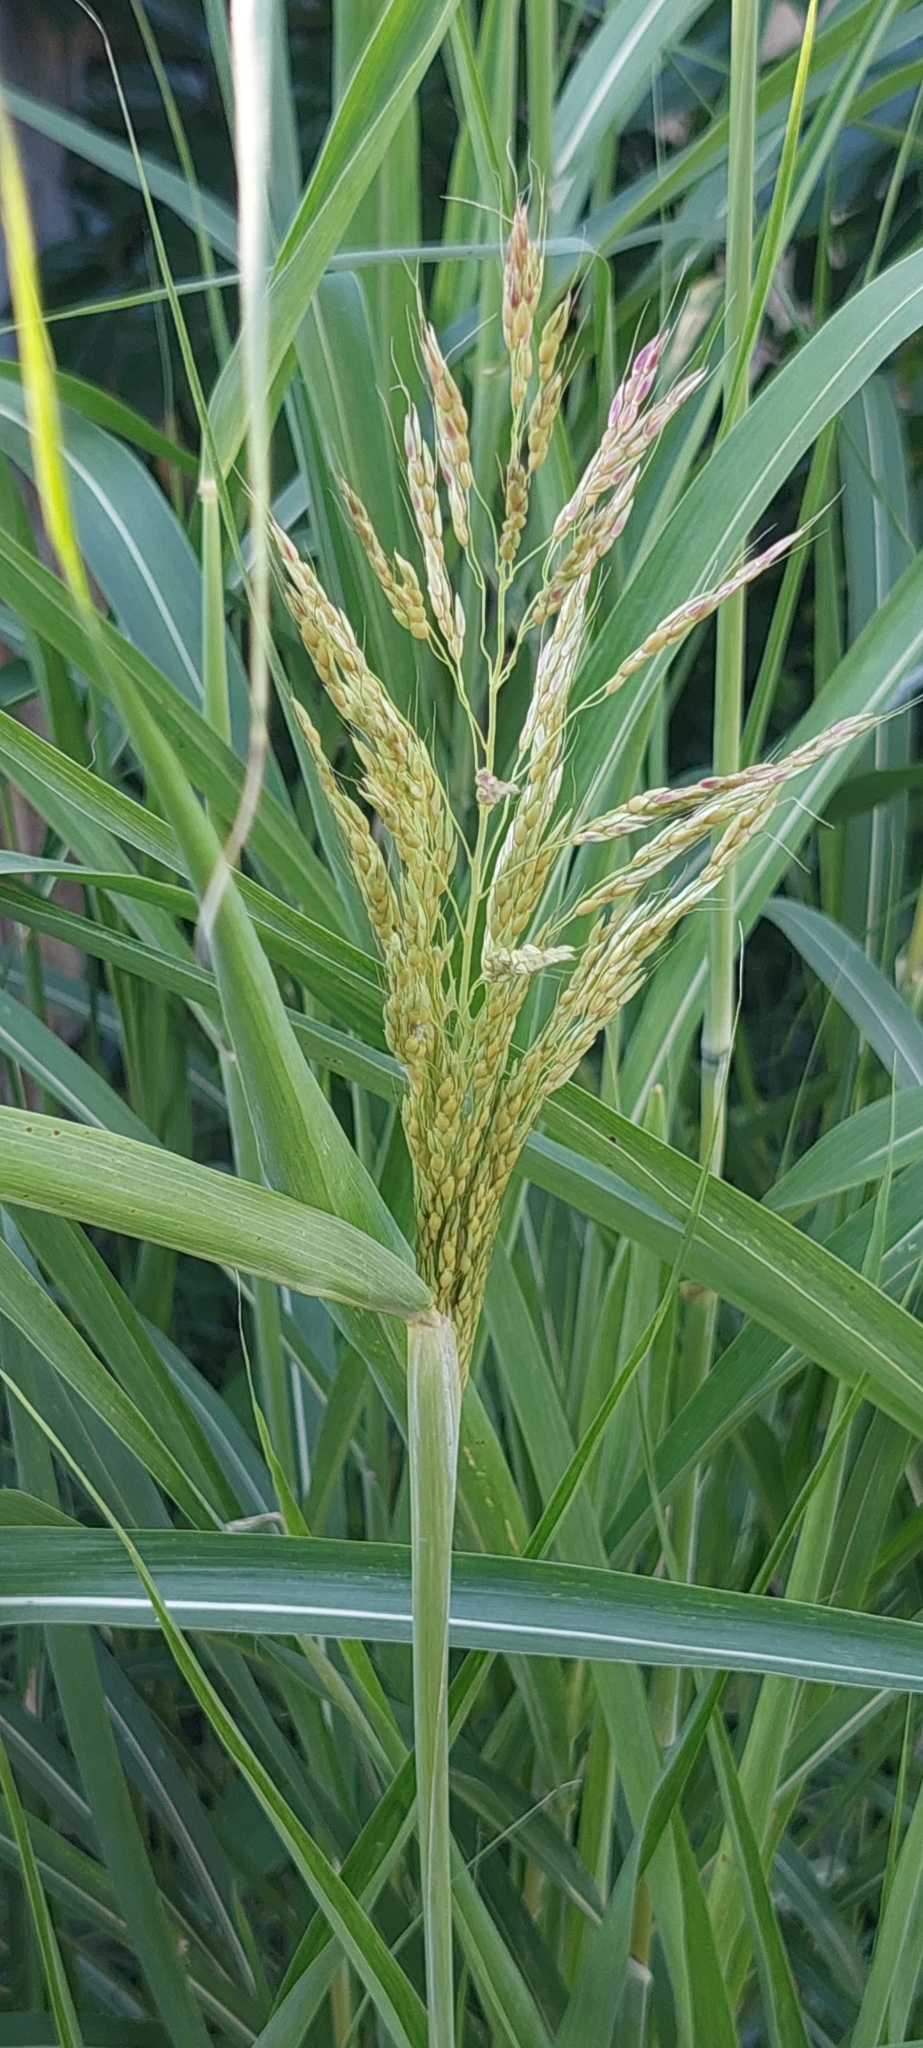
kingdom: Plantae
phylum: Tracheophyta
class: Liliopsida
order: Poales
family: Poaceae
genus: Sorghum
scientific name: Sorghum halepense
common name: Johnson-grass
